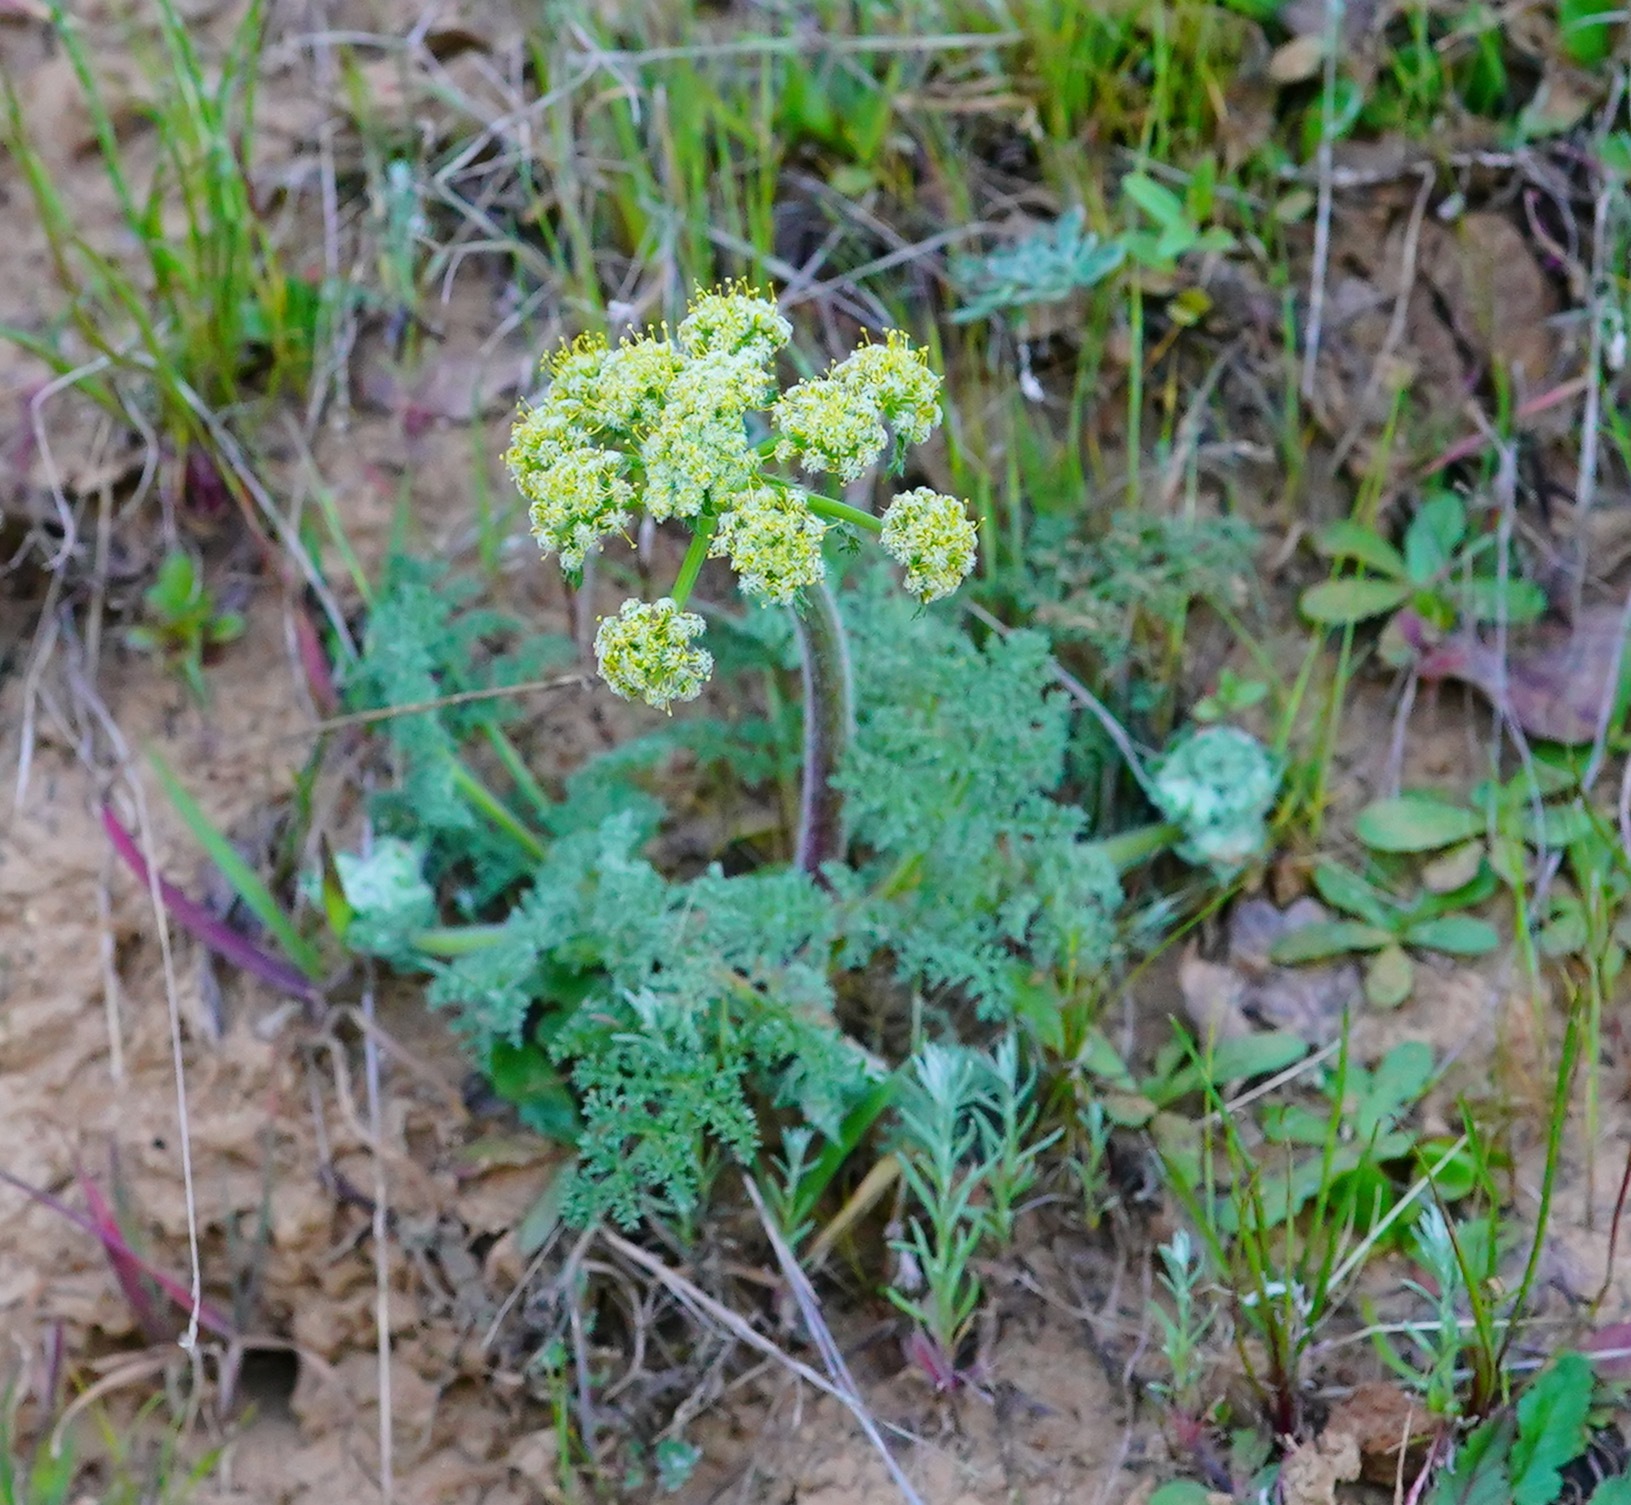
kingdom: Plantae
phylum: Tracheophyta
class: Magnoliopsida
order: Apiales
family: Apiaceae
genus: Lomatium
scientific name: Lomatium dasycarpum
